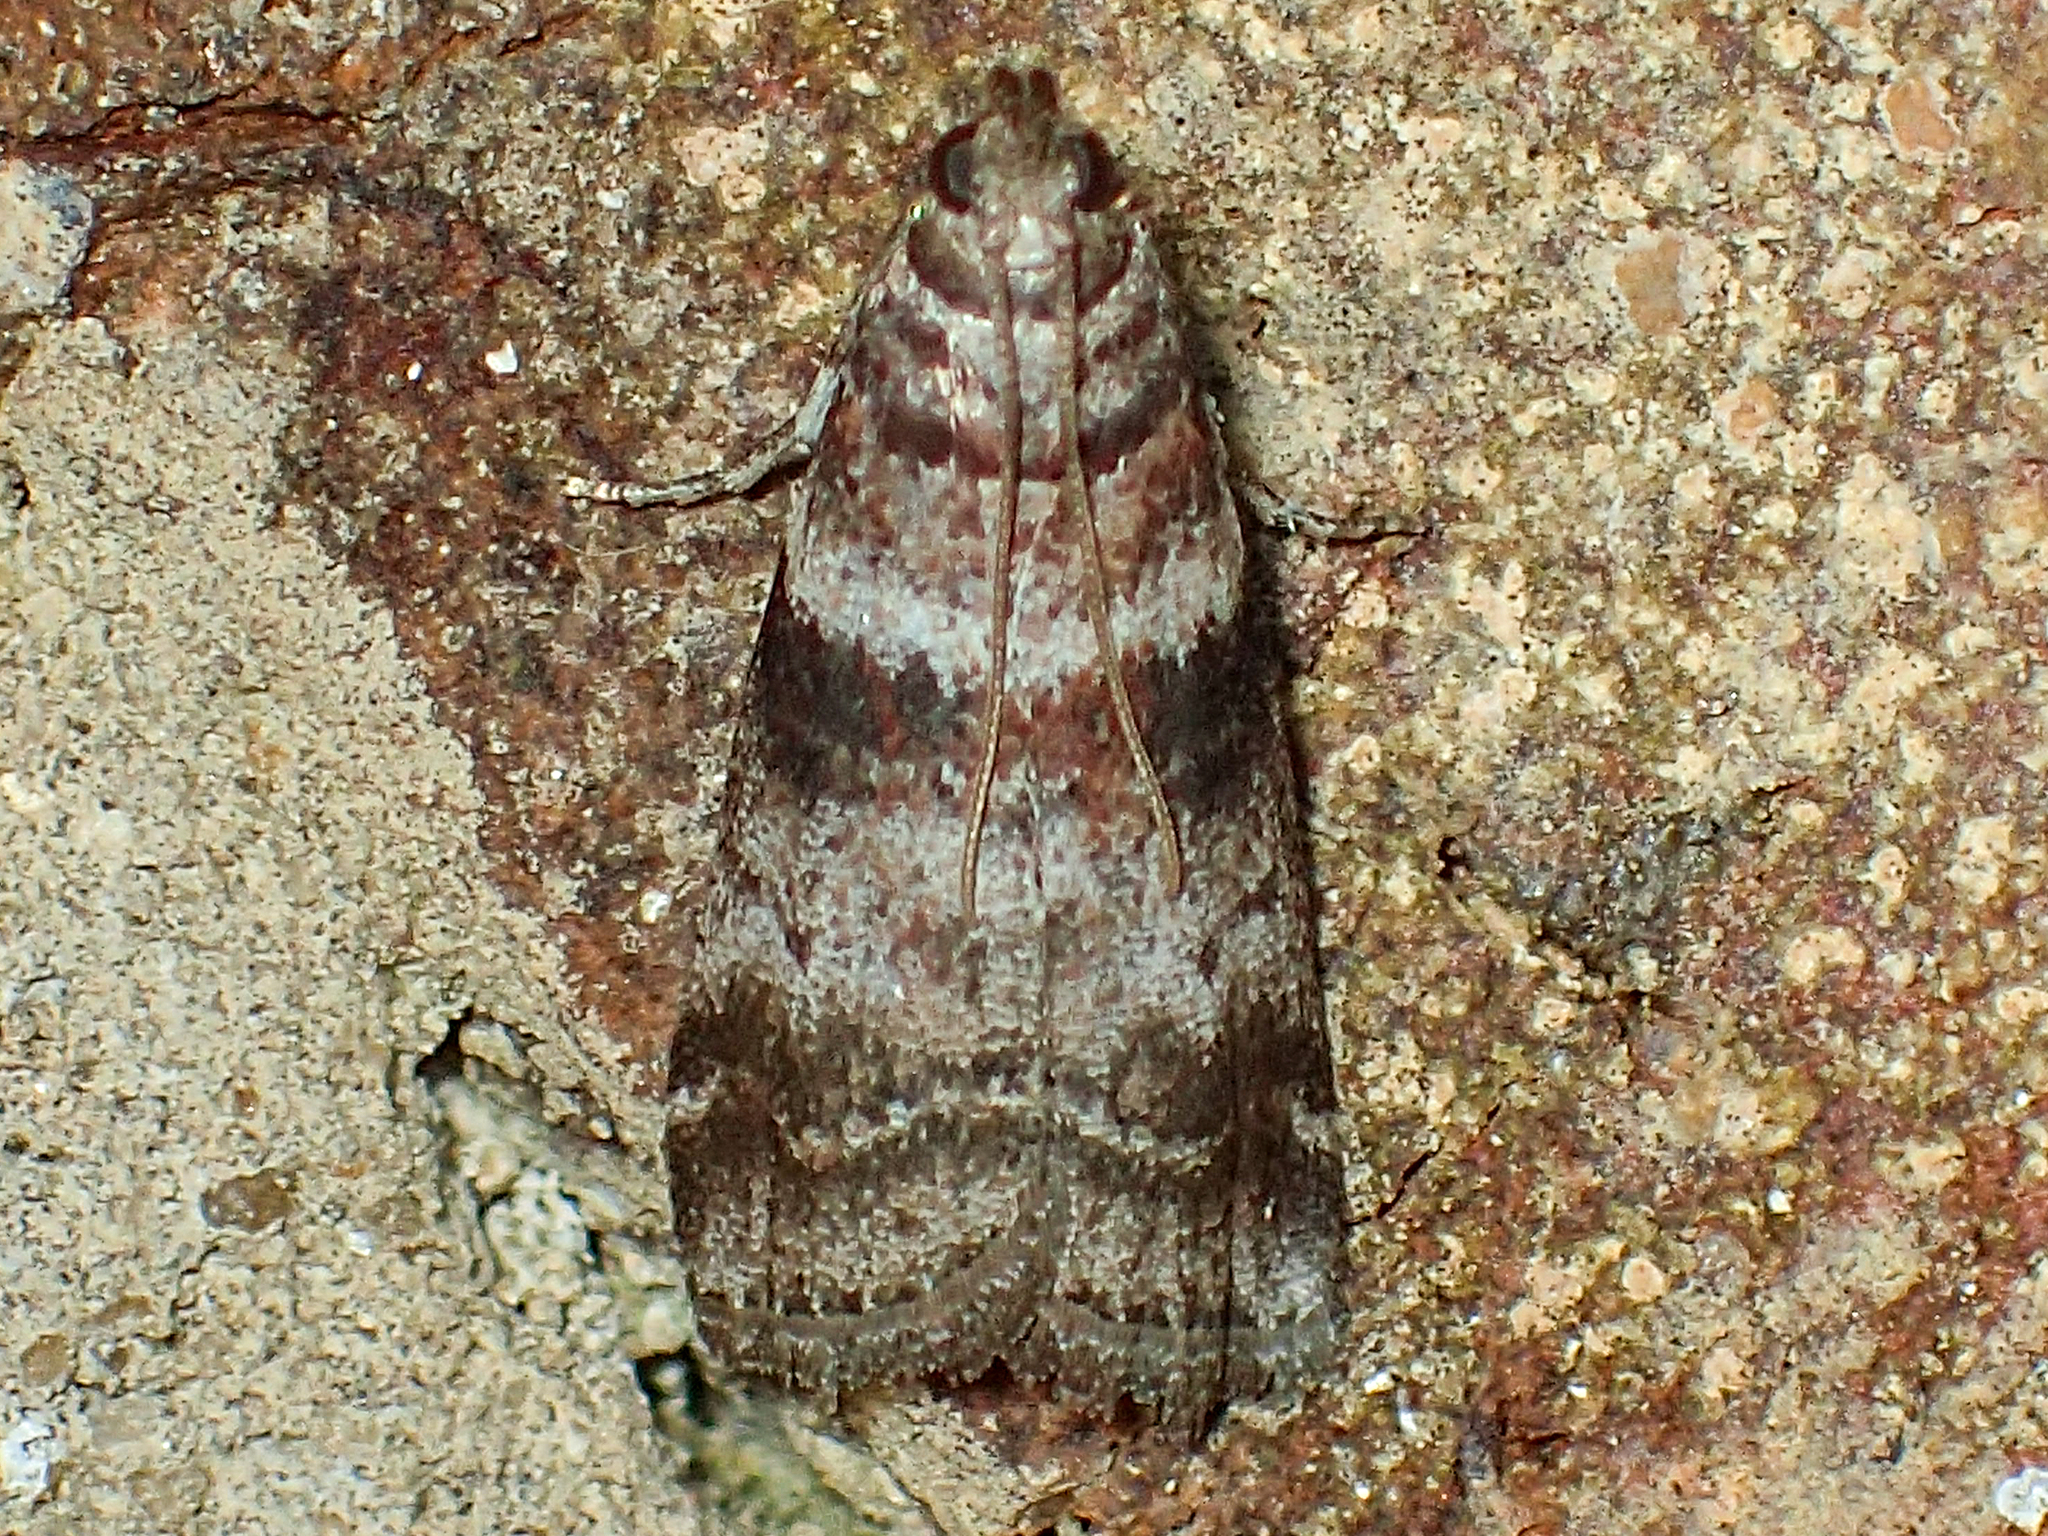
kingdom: Animalia
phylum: Arthropoda
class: Insecta
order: Lepidoptera
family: Pyralidae
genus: Sciota
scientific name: Sciota uvinella
